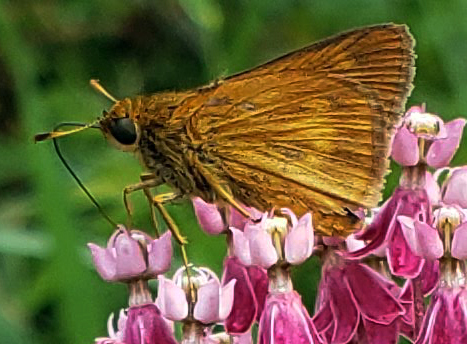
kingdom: Animalia
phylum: Arthropoda
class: Insecta
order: Lepidoptera
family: Hesperiidae
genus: Euphyes
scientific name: Euphyes conspicua
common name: Black dash
